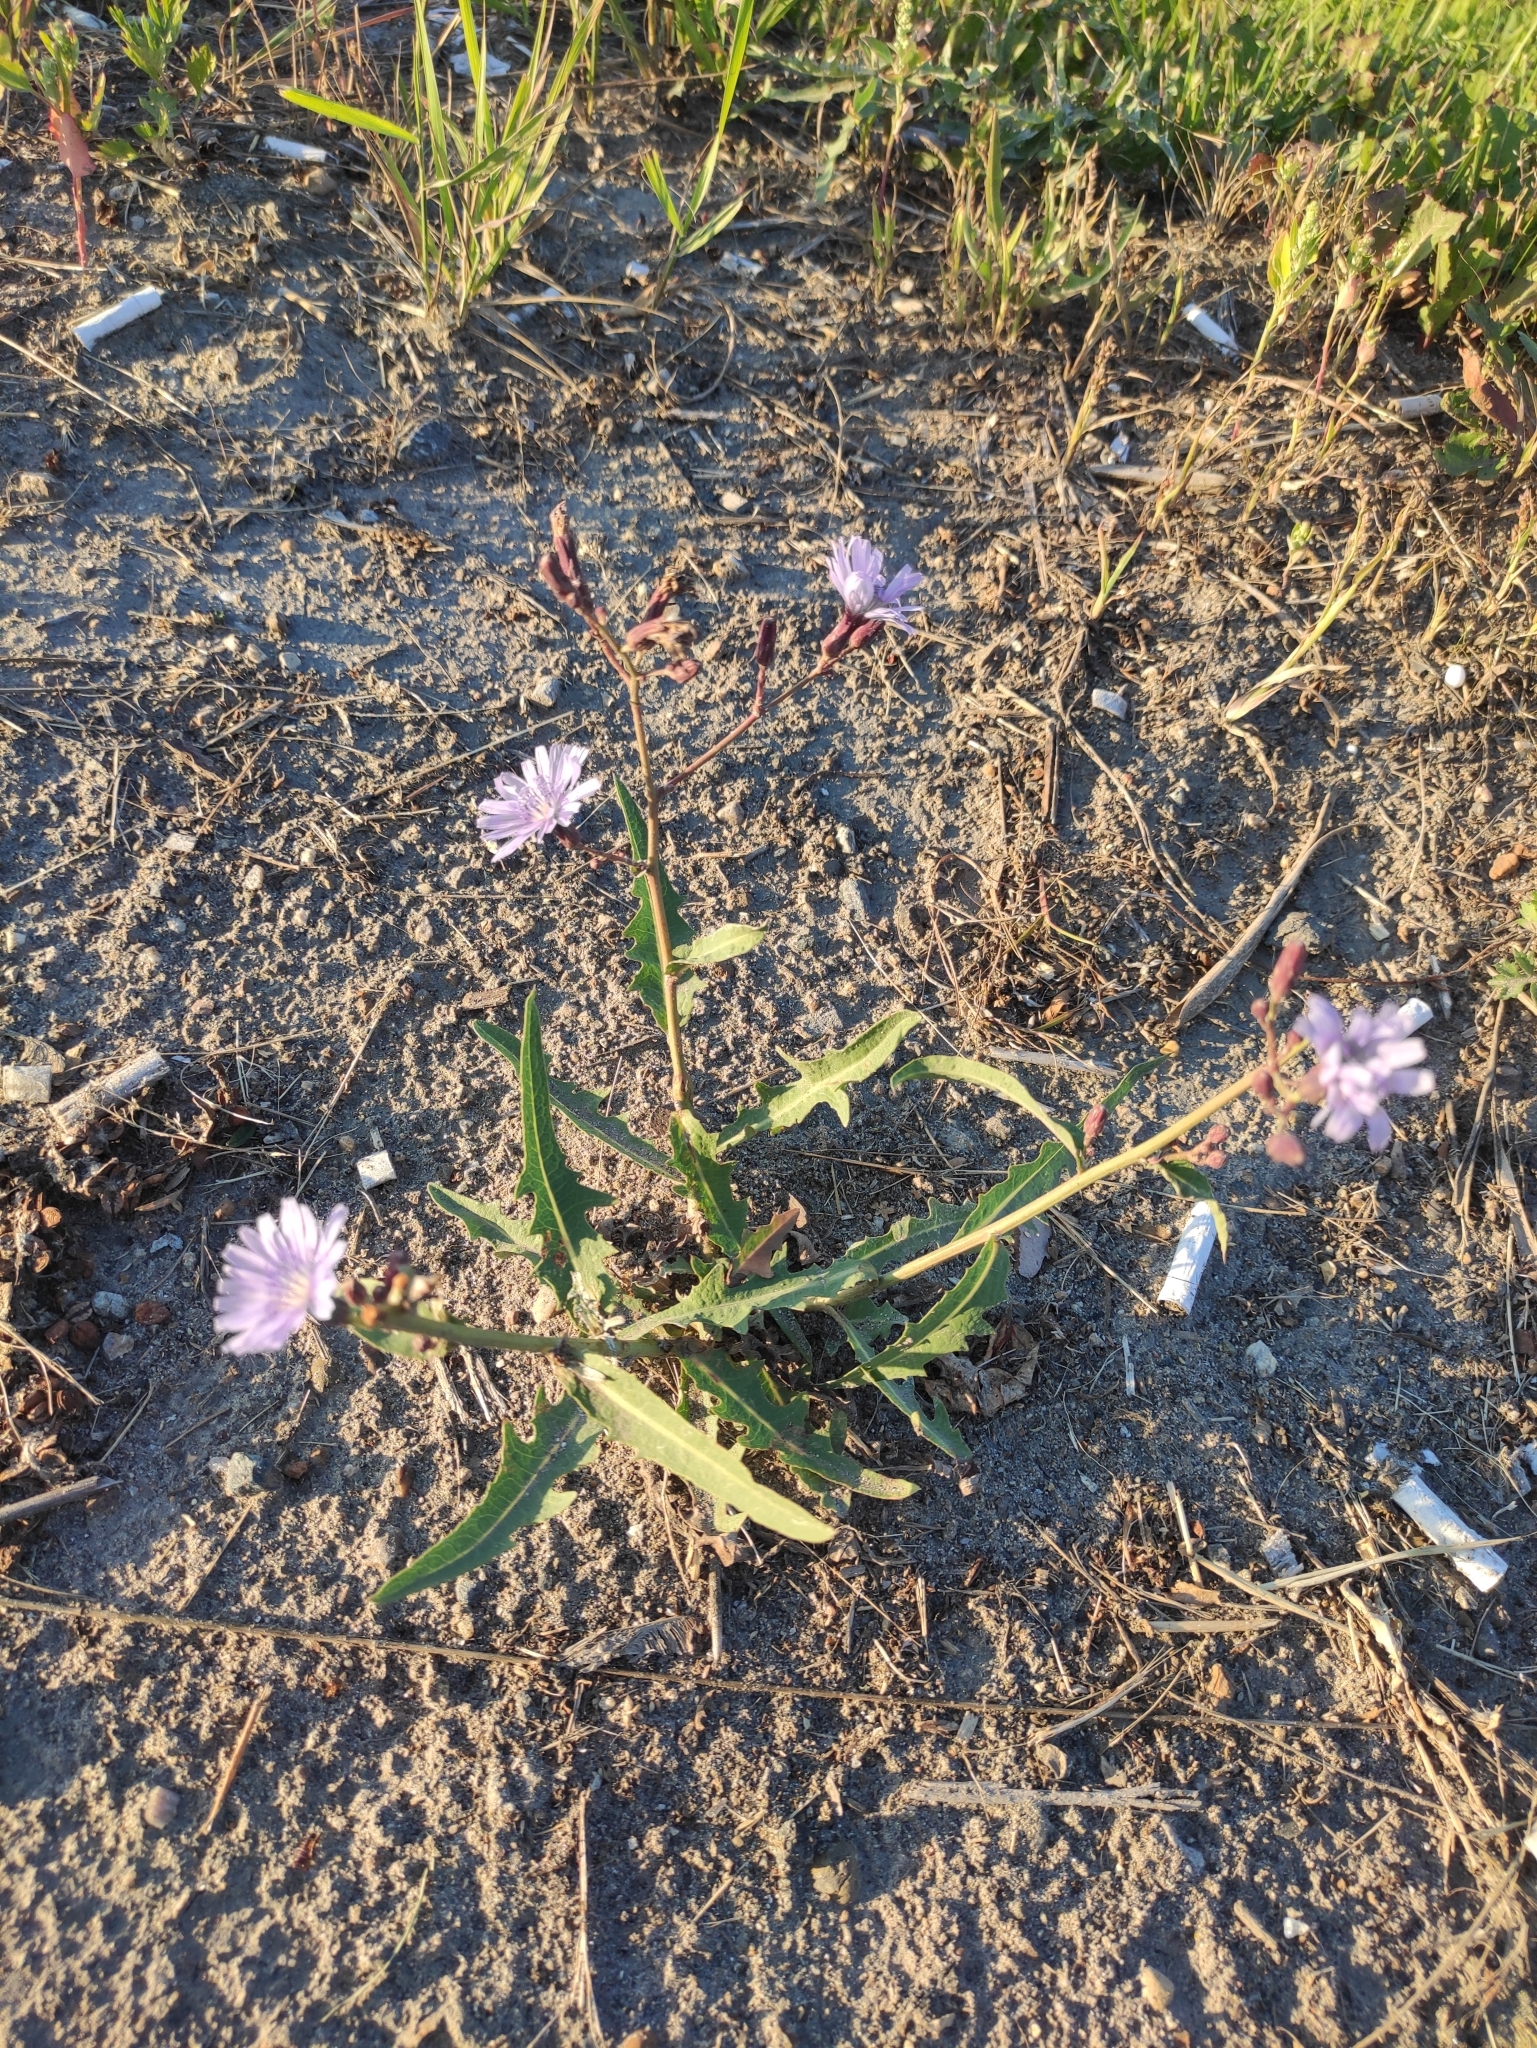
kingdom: Plantae
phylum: Tracheophyta
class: Magnoliopsida
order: Asterales
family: Asteraceae
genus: Lactuca
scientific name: Lactuca tatarica
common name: Blue lettuce
